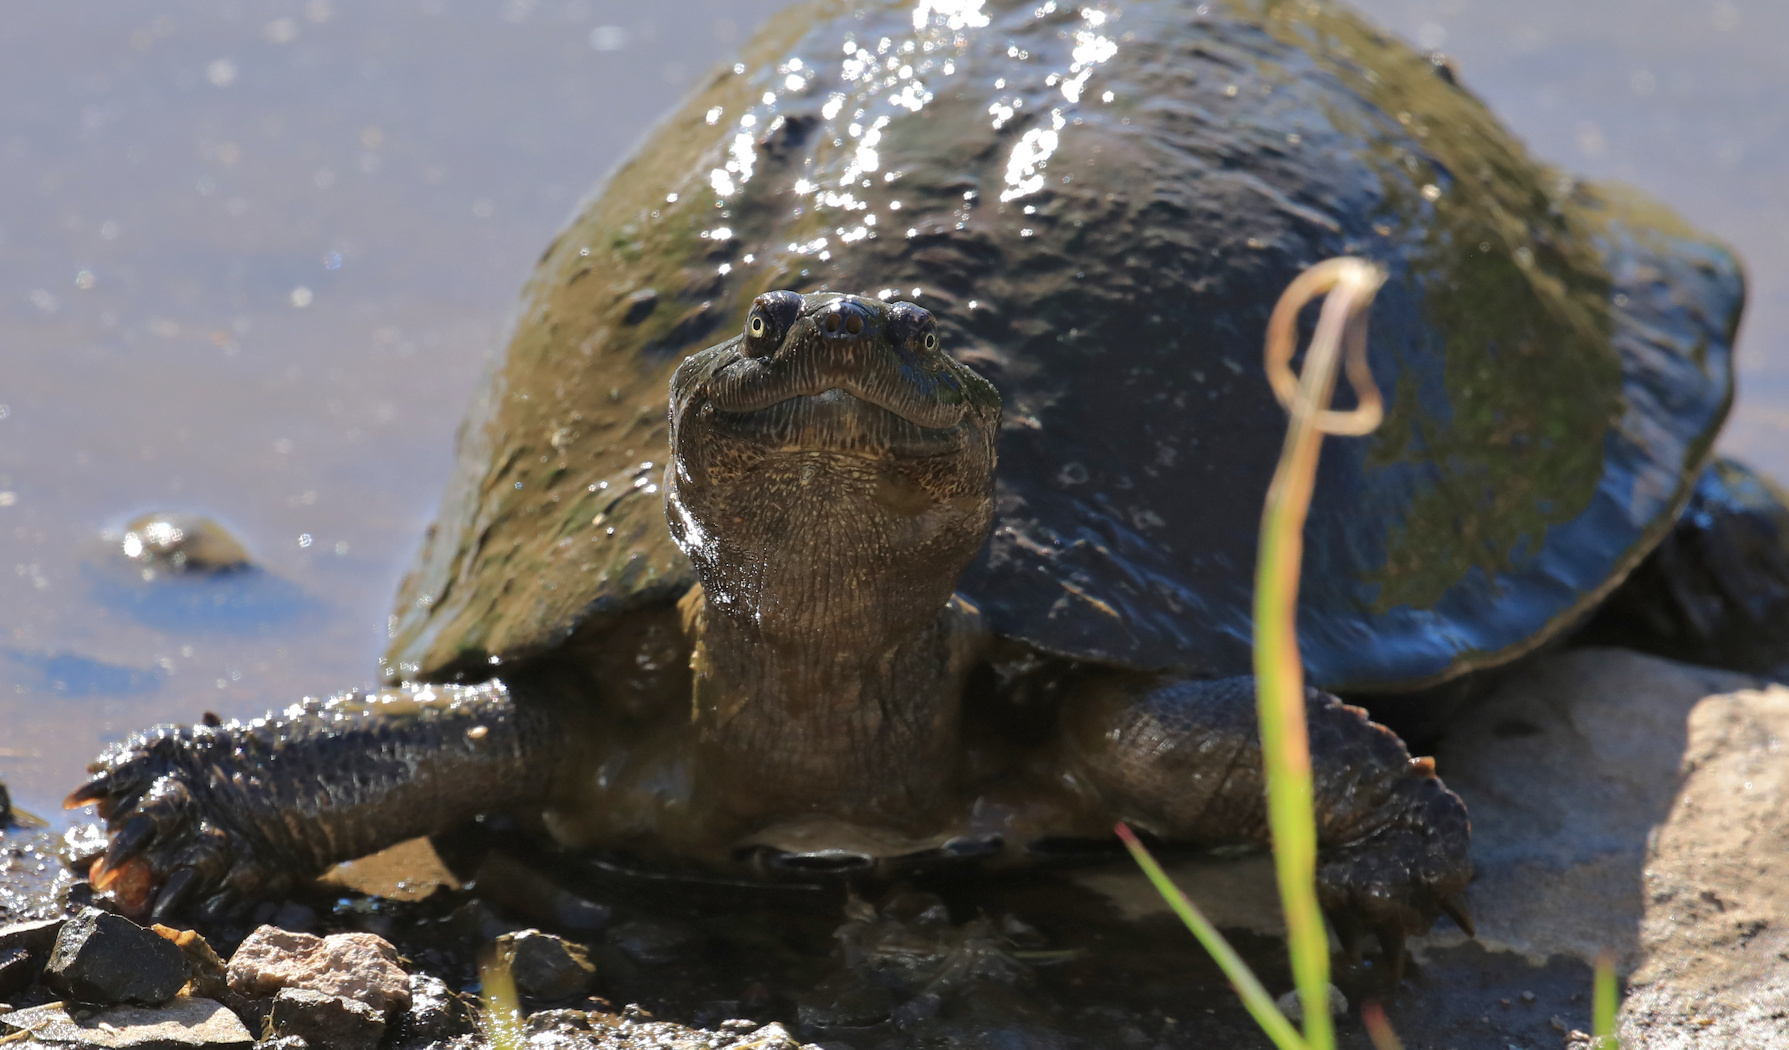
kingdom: Animalia
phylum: Chordata
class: Testudines
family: Pelomedusidae
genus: Pelusios
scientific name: Pelusios sinuatus
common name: Serrated hinged terrapin
